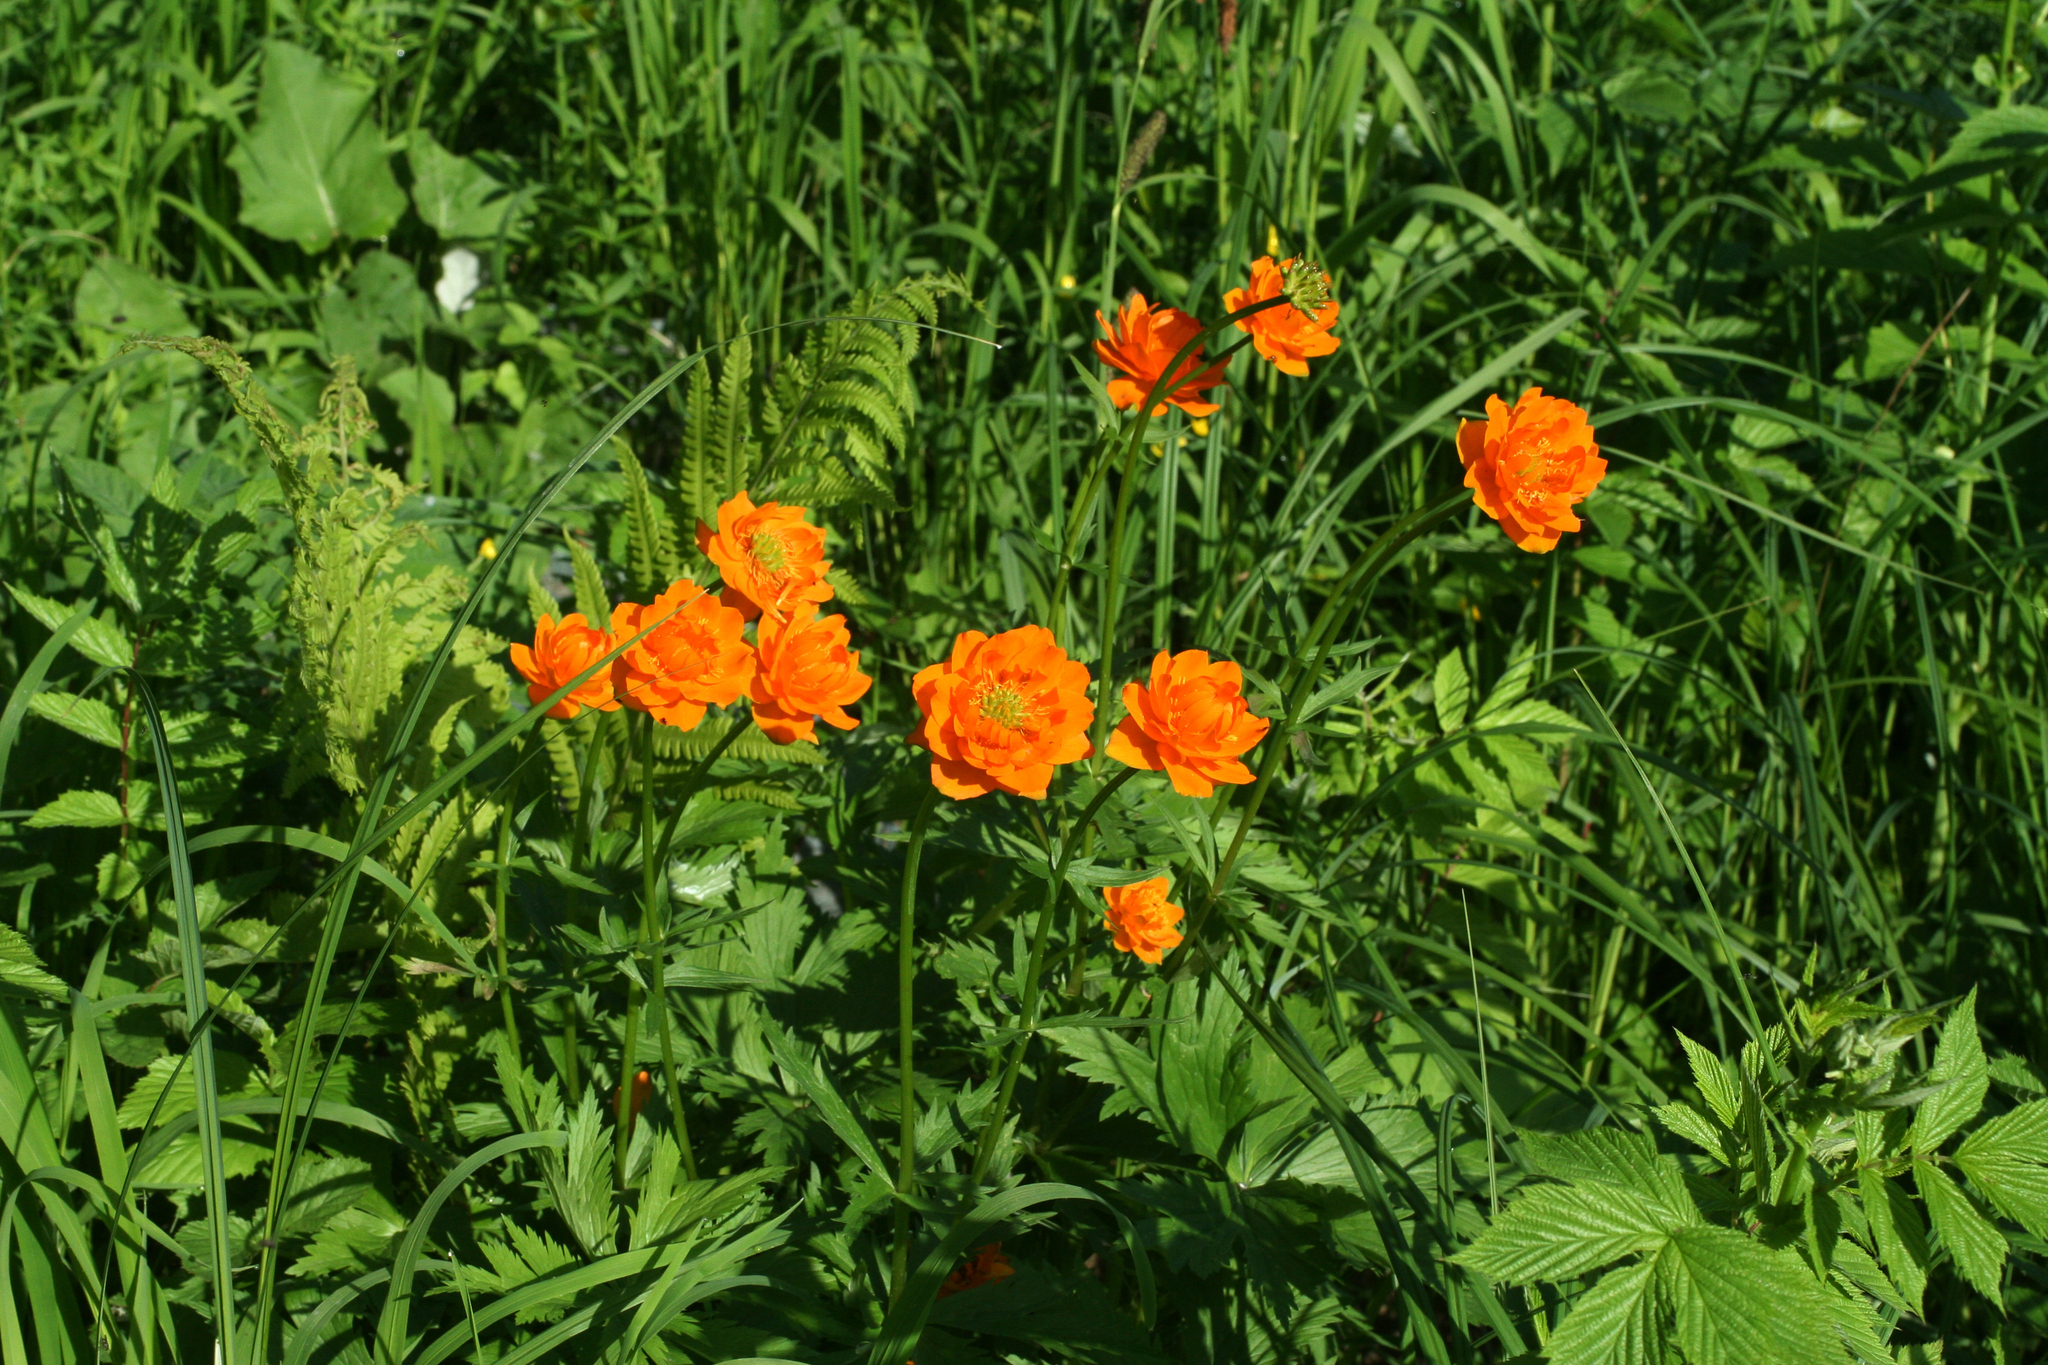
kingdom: Plantae
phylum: Tracheophyta
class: Magnoliopsida
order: Ranunculales
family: Ranunculaceae
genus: Trollius
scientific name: Trollius asiaticus
